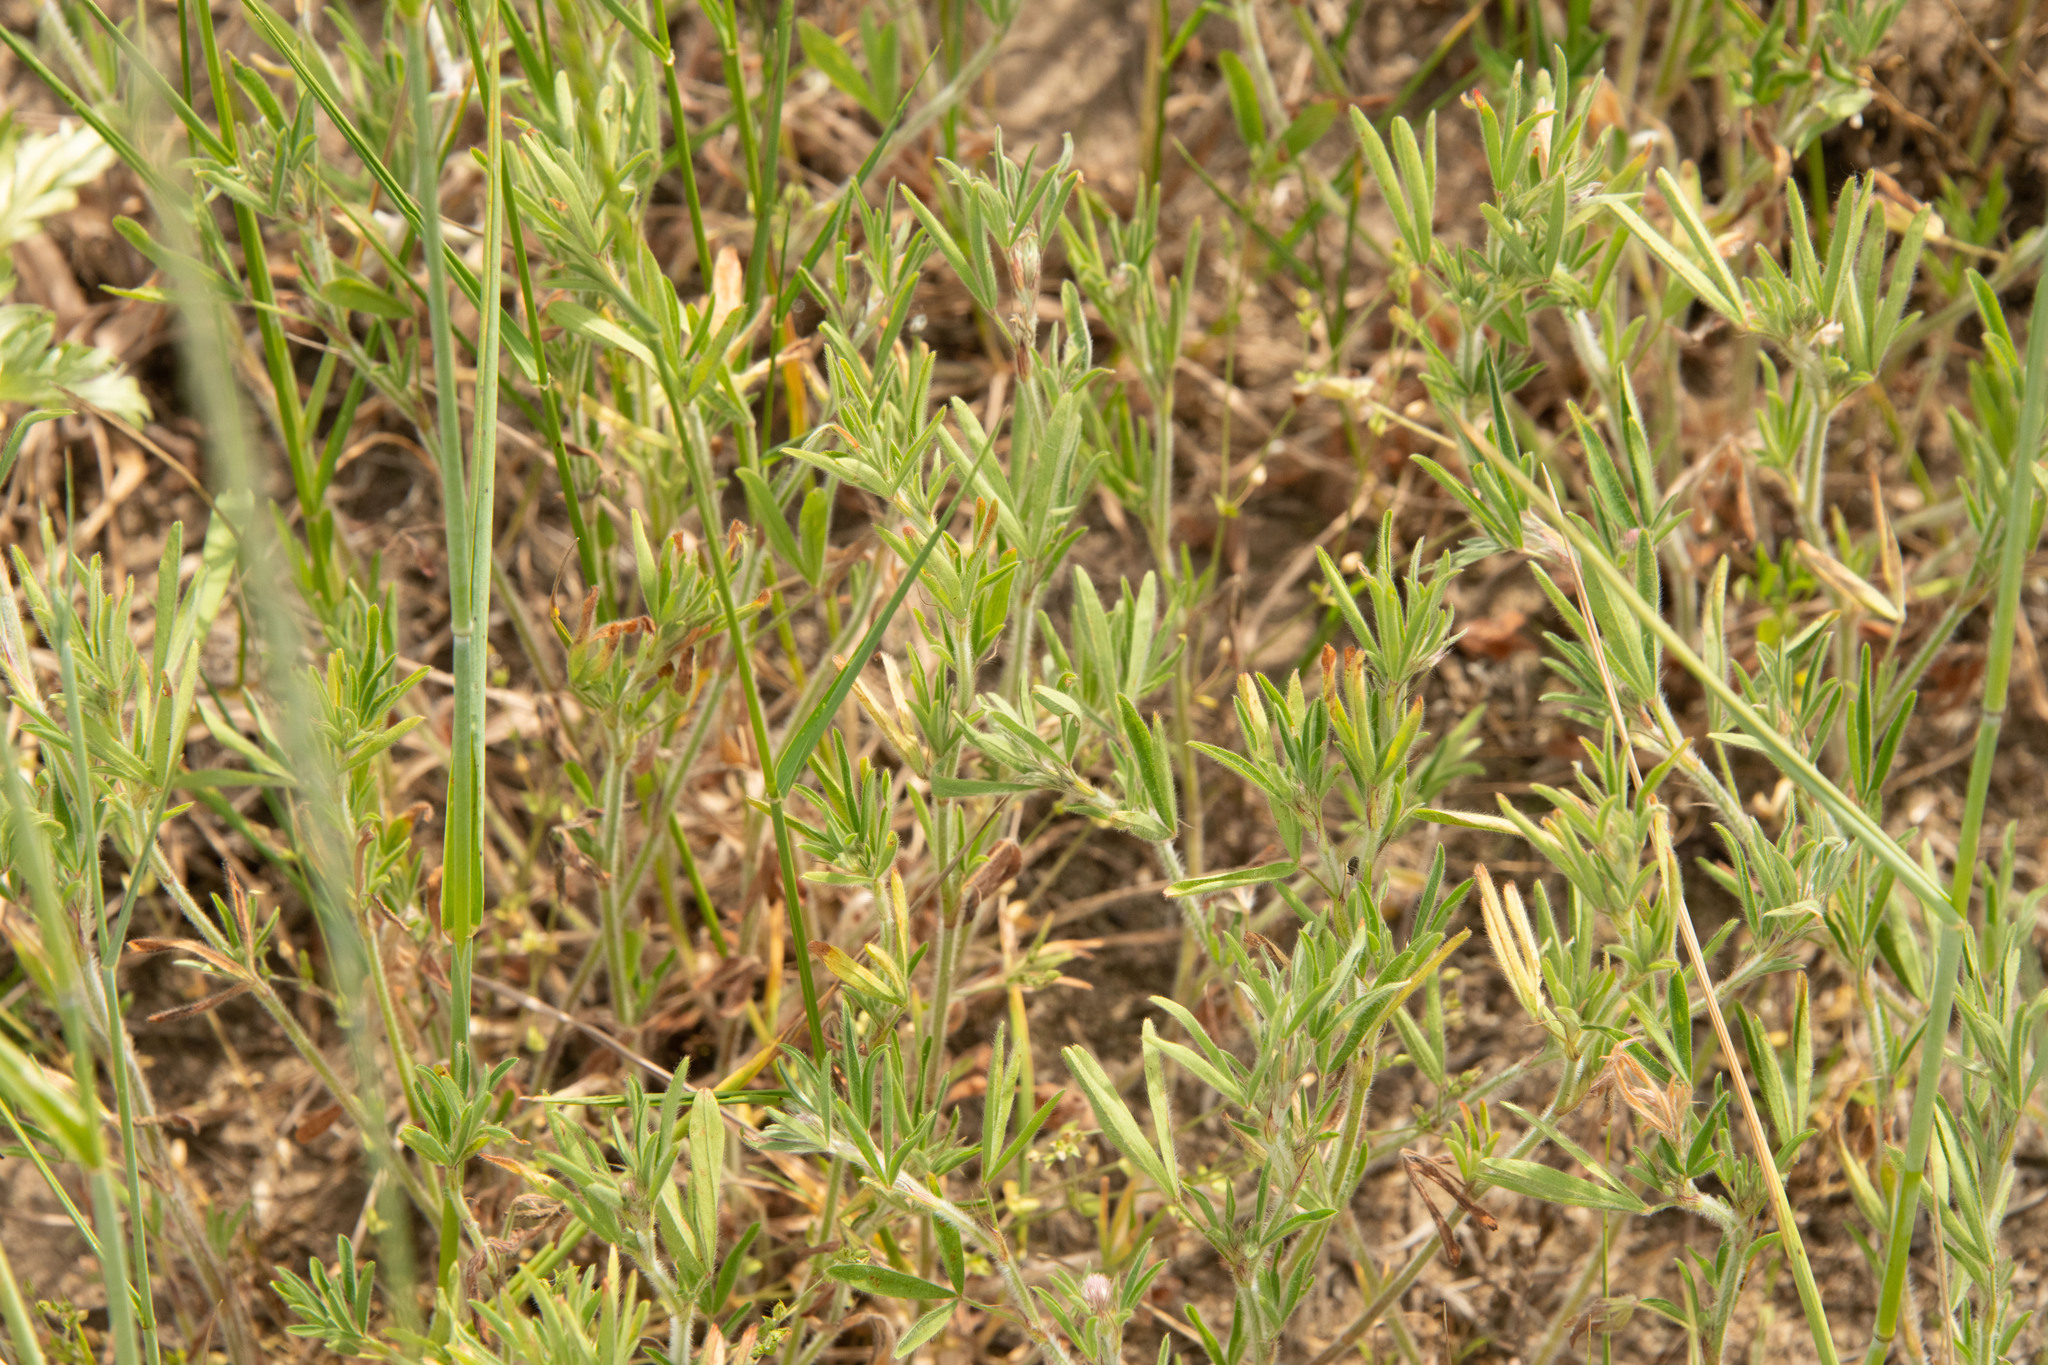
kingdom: Plantae
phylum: Tracheophyta
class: Magnoliopsida
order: Fabales
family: Fabaceae
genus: Trifolium
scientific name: Trifolium arvense
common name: Hare's-foot clover
